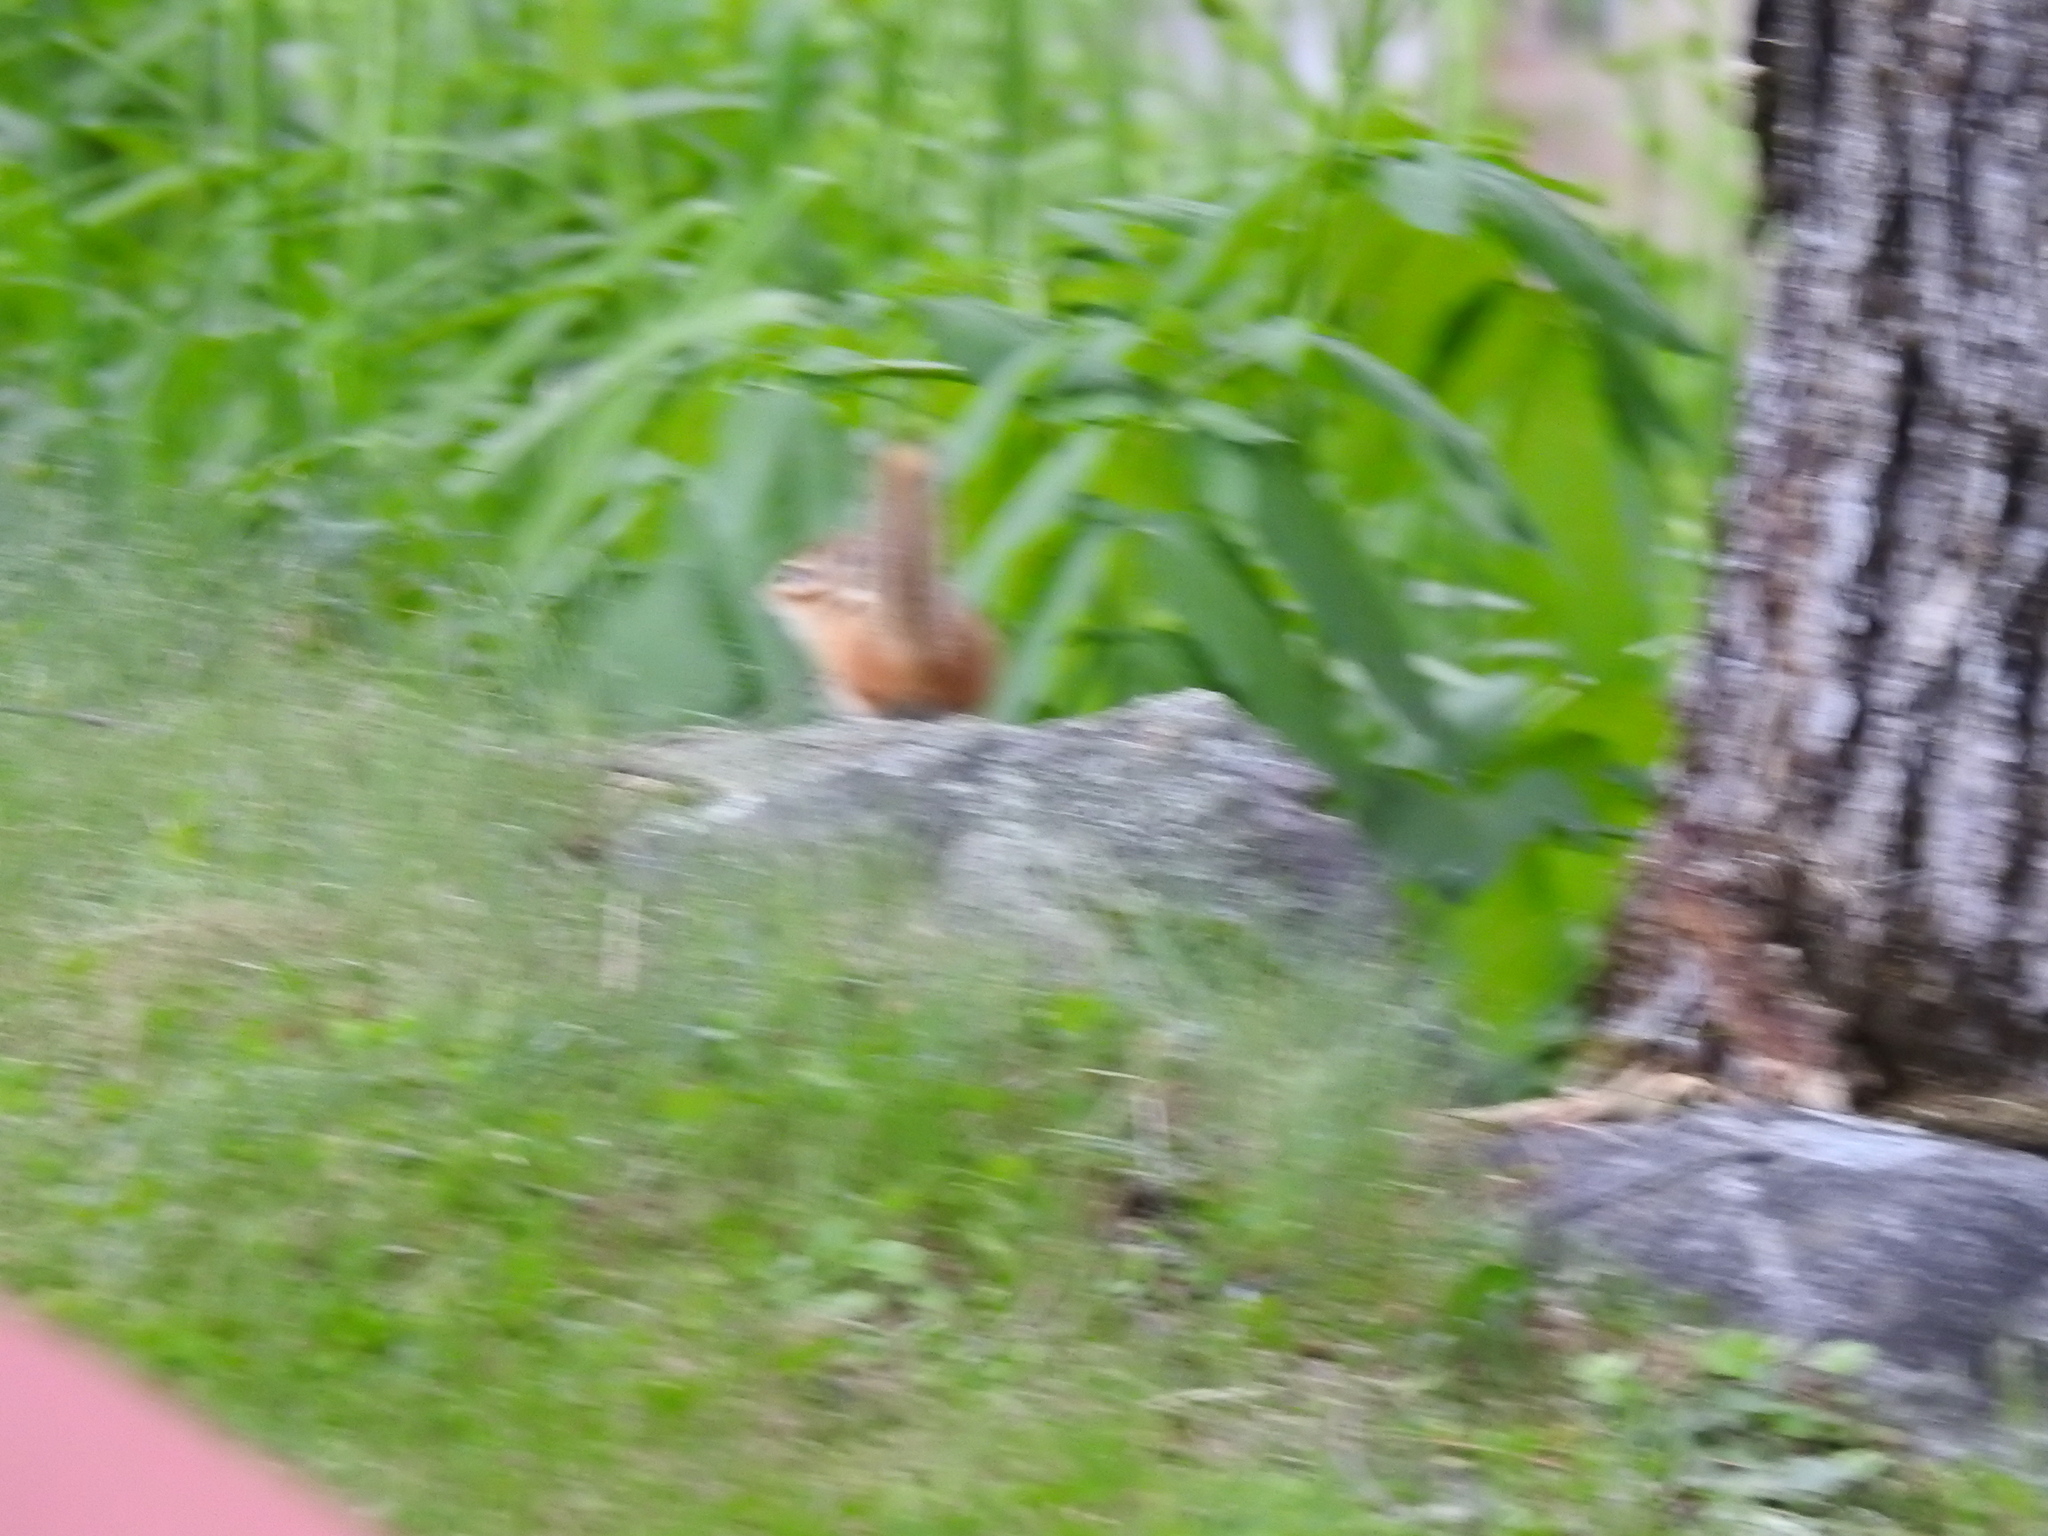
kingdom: Animalia
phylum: Chordata
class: Mammalia
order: Rodentia
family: Sciuridae
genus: Tamias
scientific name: Tamias striatus
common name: Eastern chipmunk
